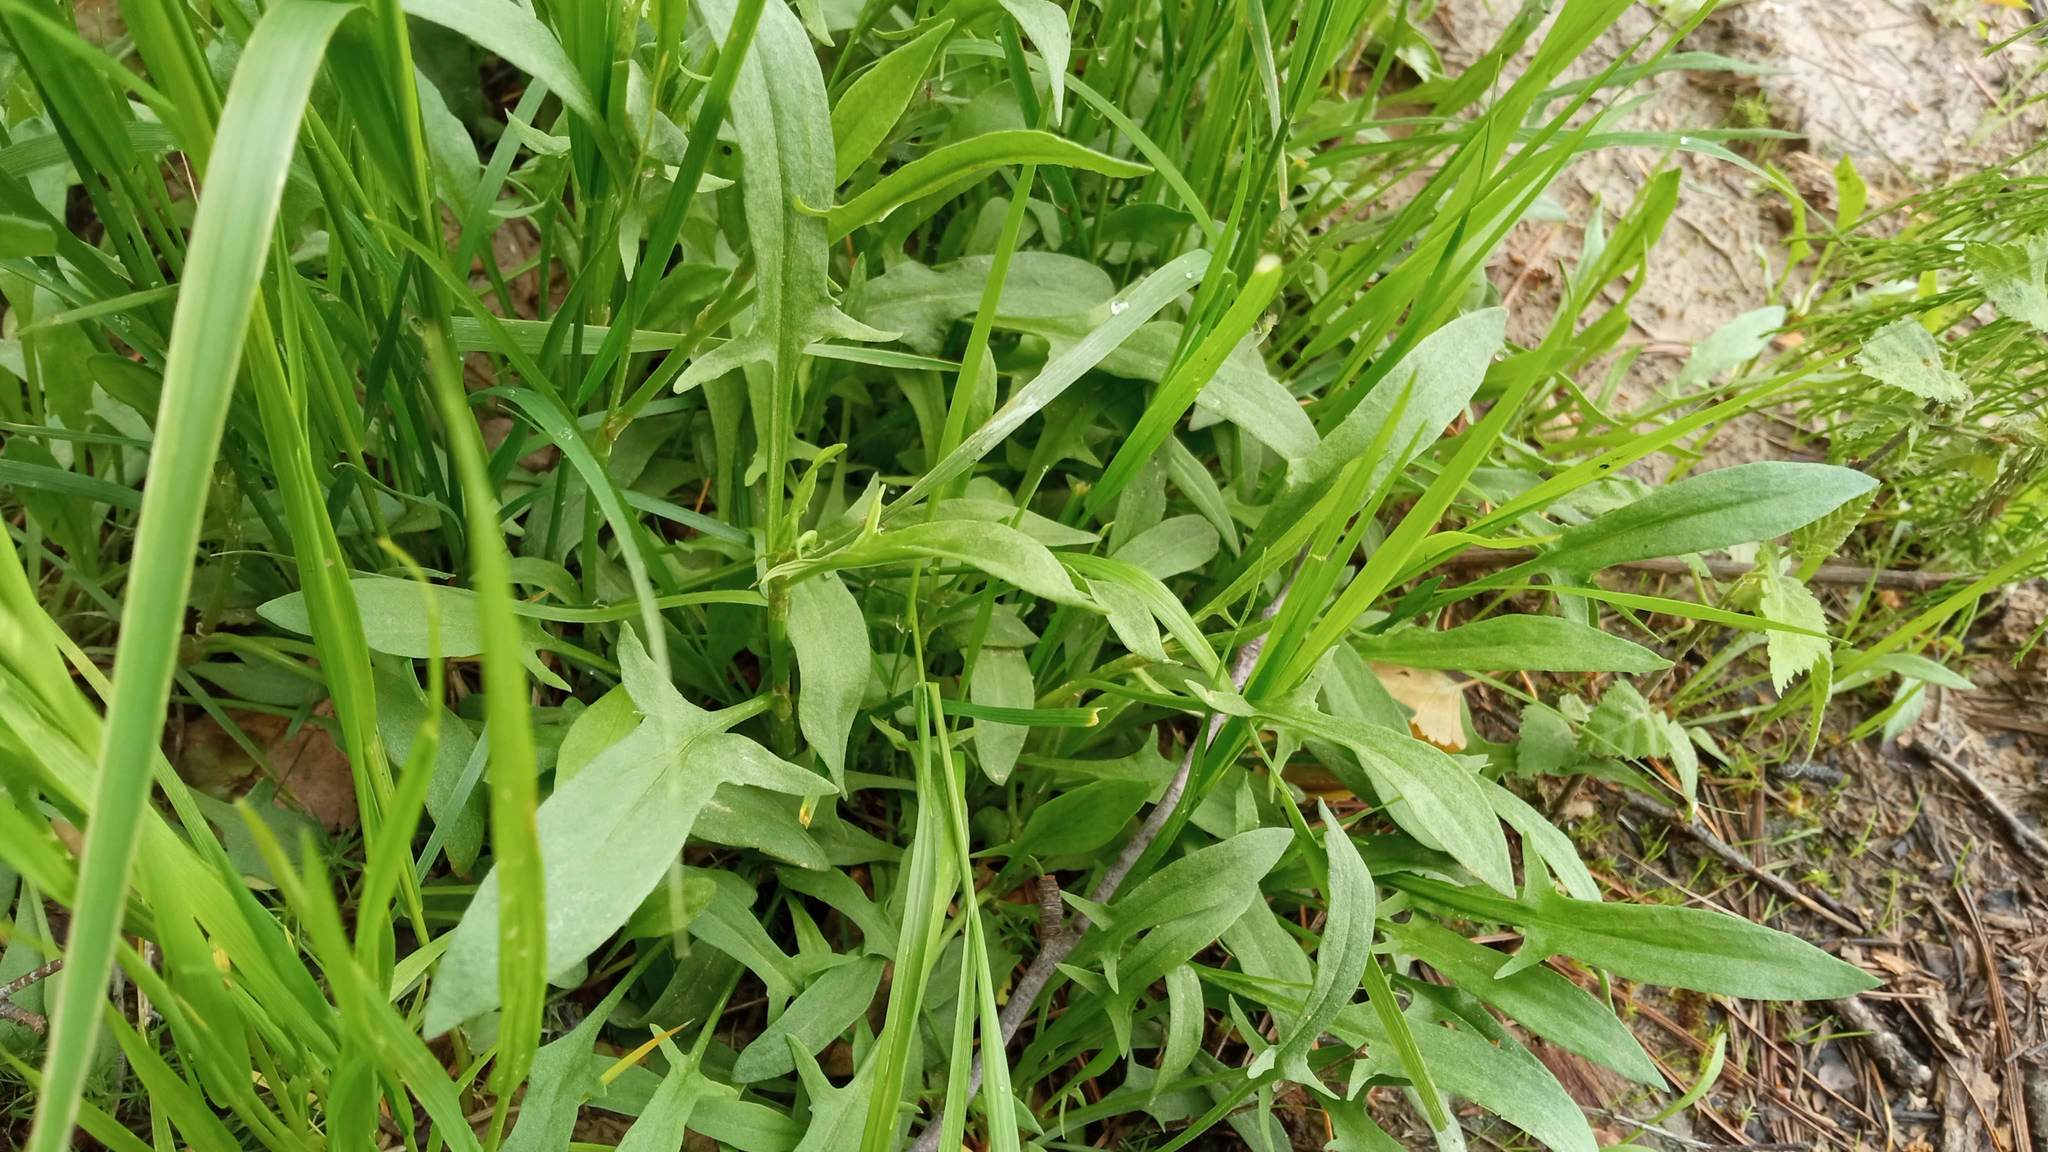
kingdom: Plantae
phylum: Tracheophyta
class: Magnoliopsida
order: Caryophyllales
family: Polygonaceae
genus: Rumex
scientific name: Rumex acetosella
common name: Common sheep sorrel
